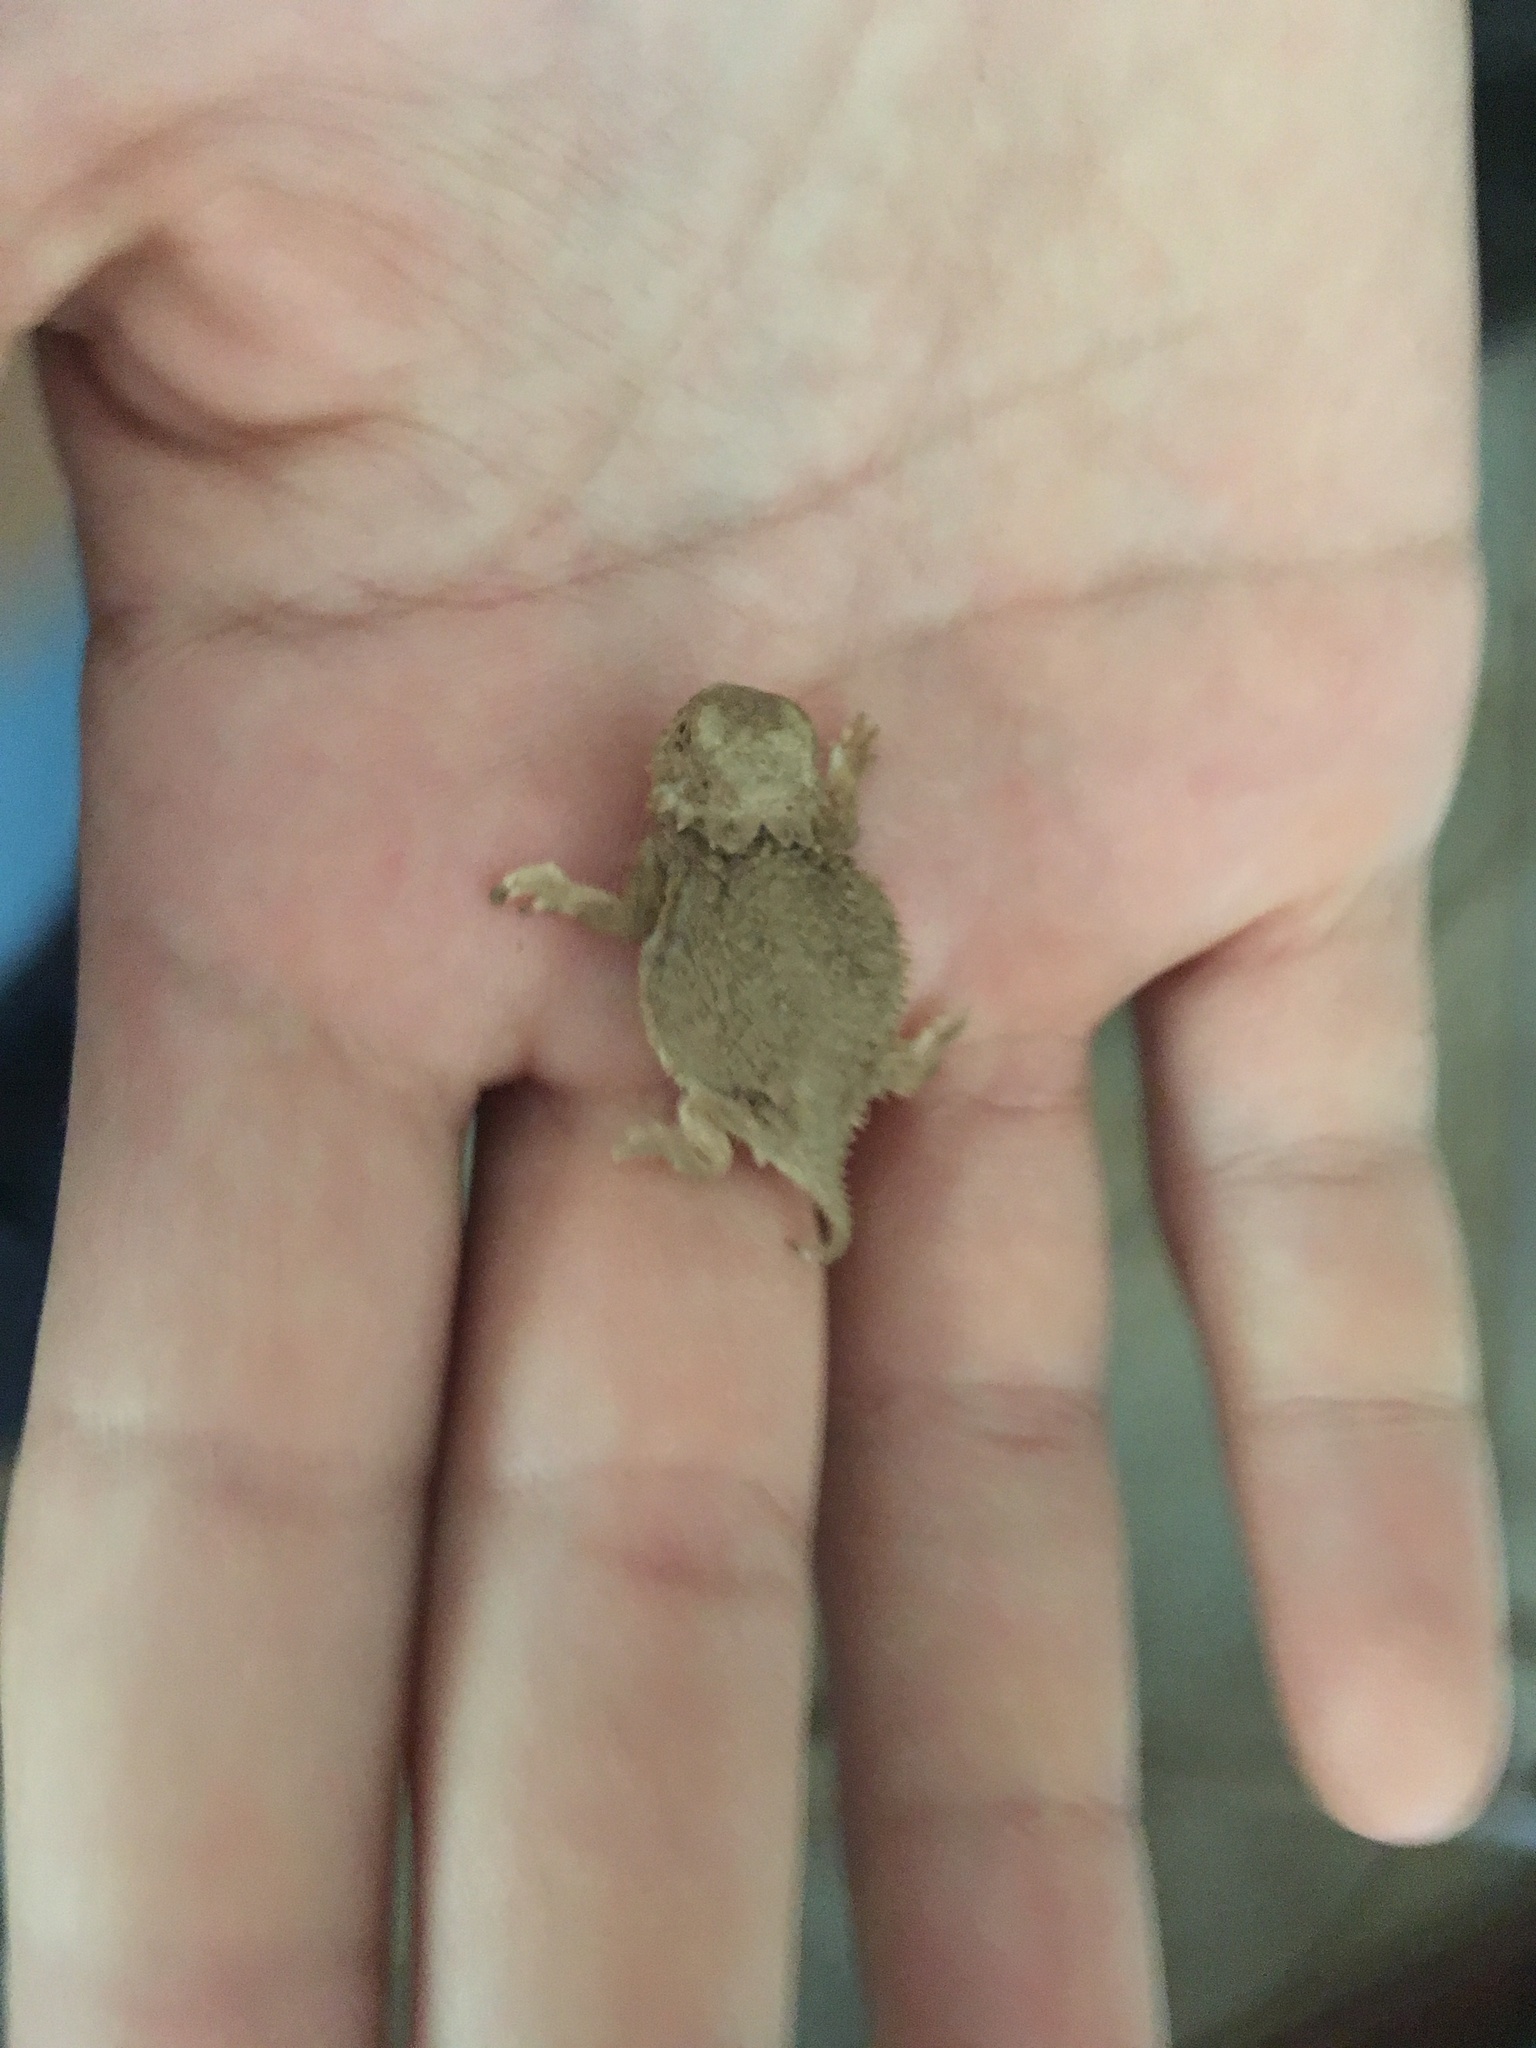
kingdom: Animalia
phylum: Chordata
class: Squamata
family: Phrynosomatidae
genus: Phrynosoma
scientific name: Phrynosoma solare
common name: Regal horned lizard
